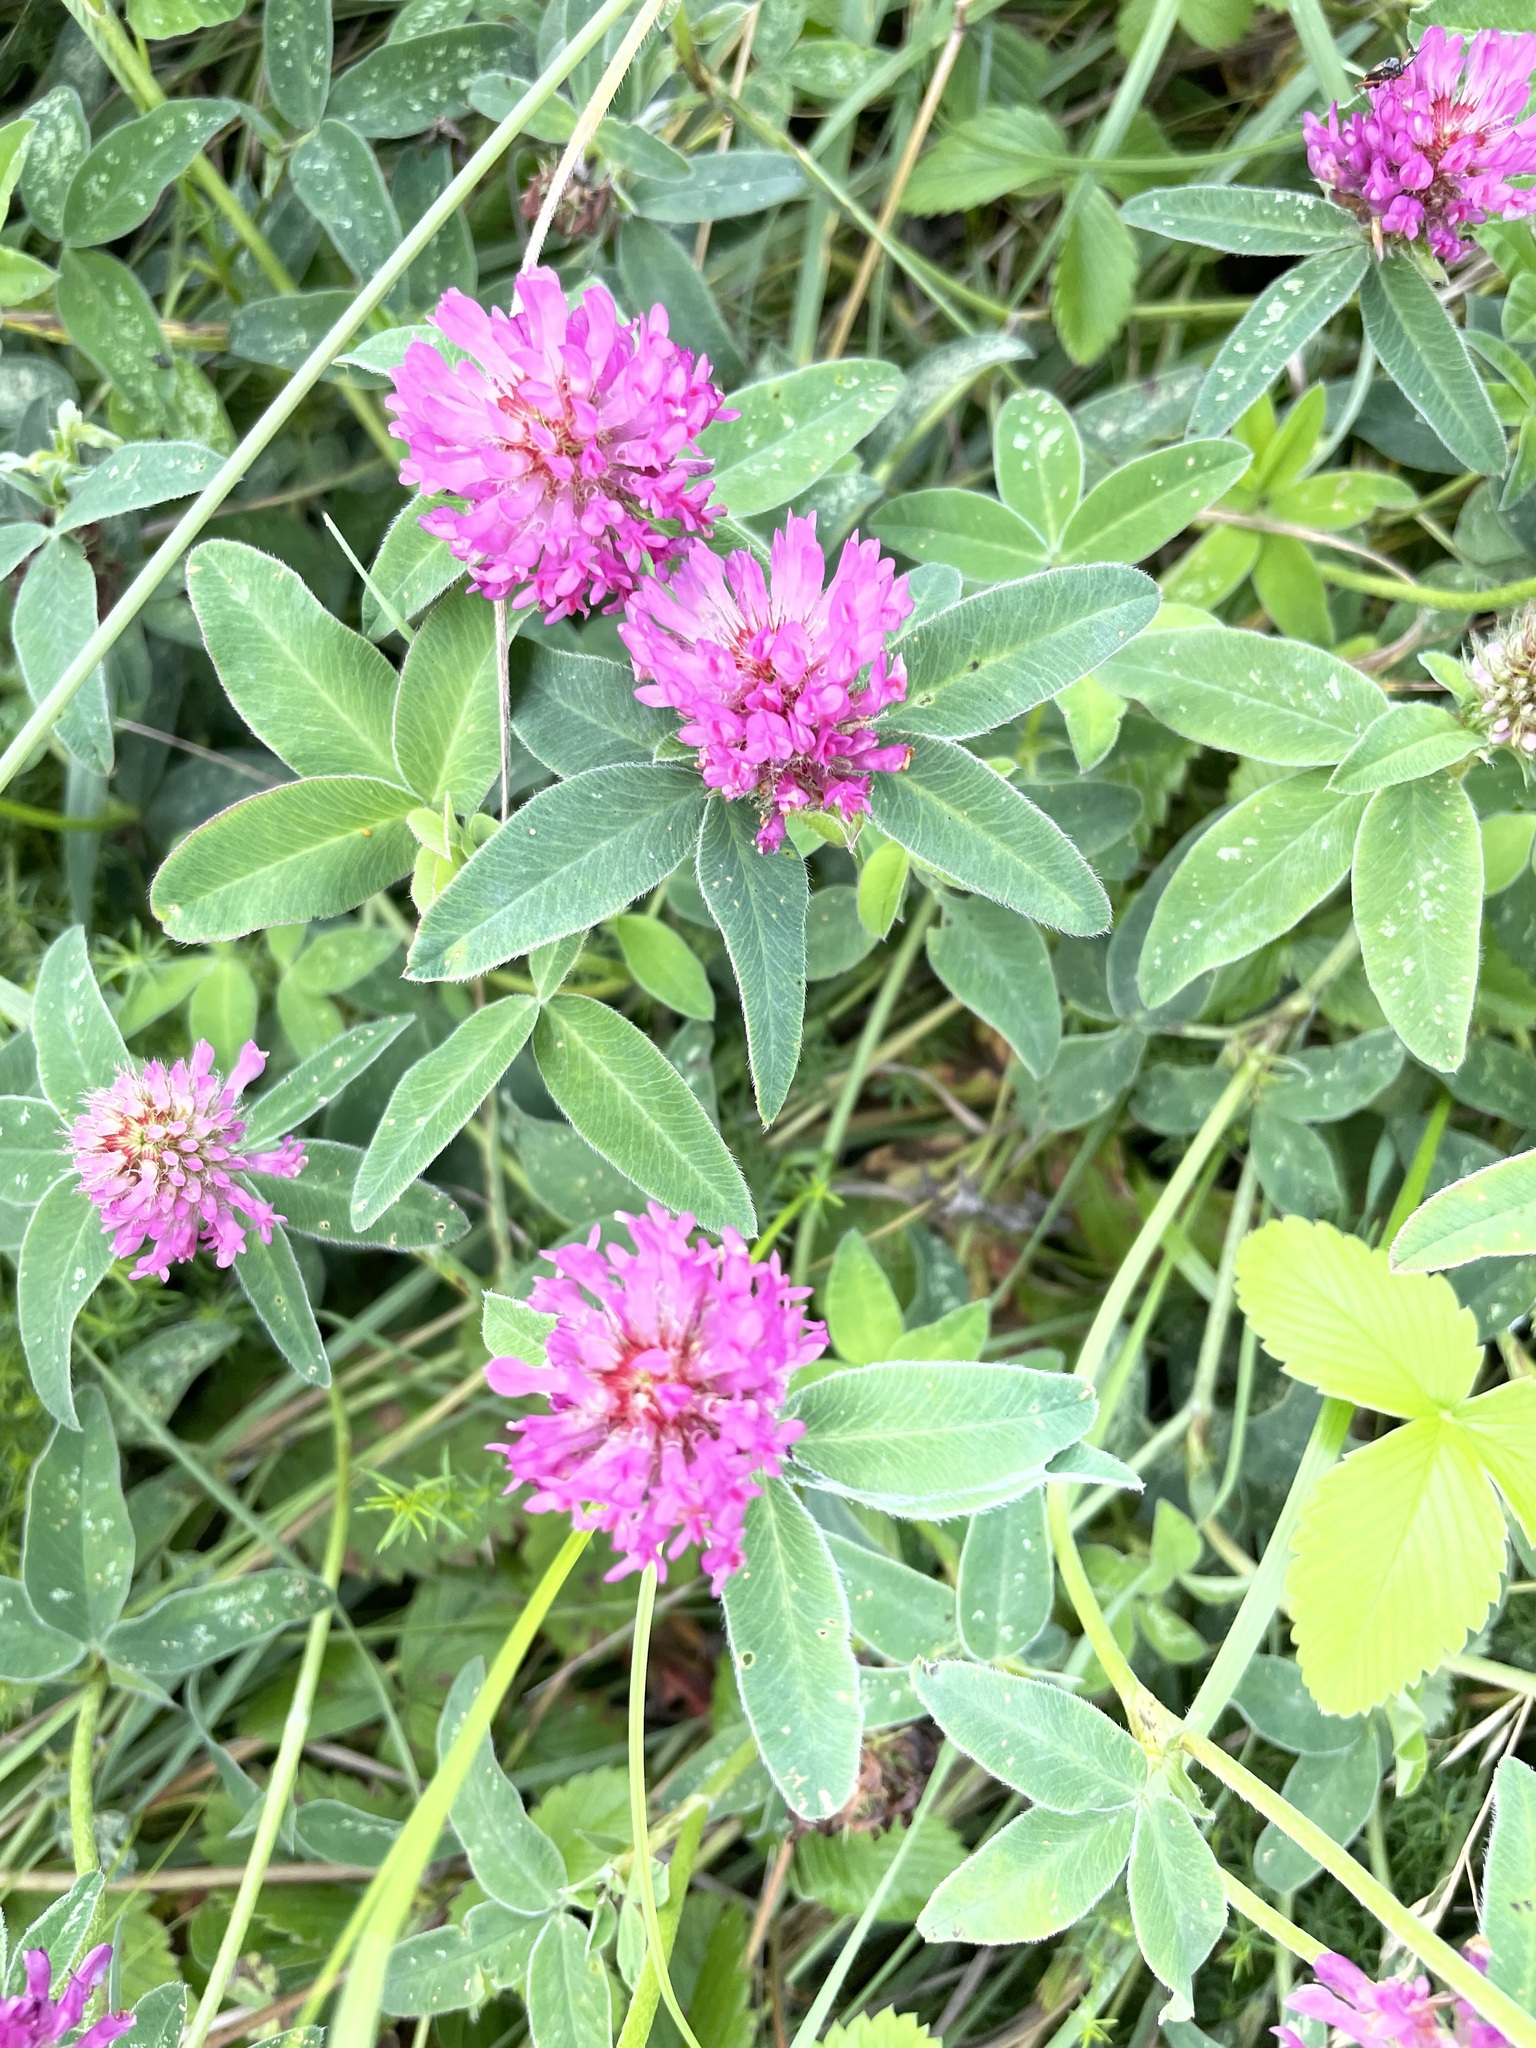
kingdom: Plantae
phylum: Tracheophyta
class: Magnoliopsida
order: Fabales
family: Fabaceae
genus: Trifolium
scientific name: Trifolium medium
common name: Zigzag clover
